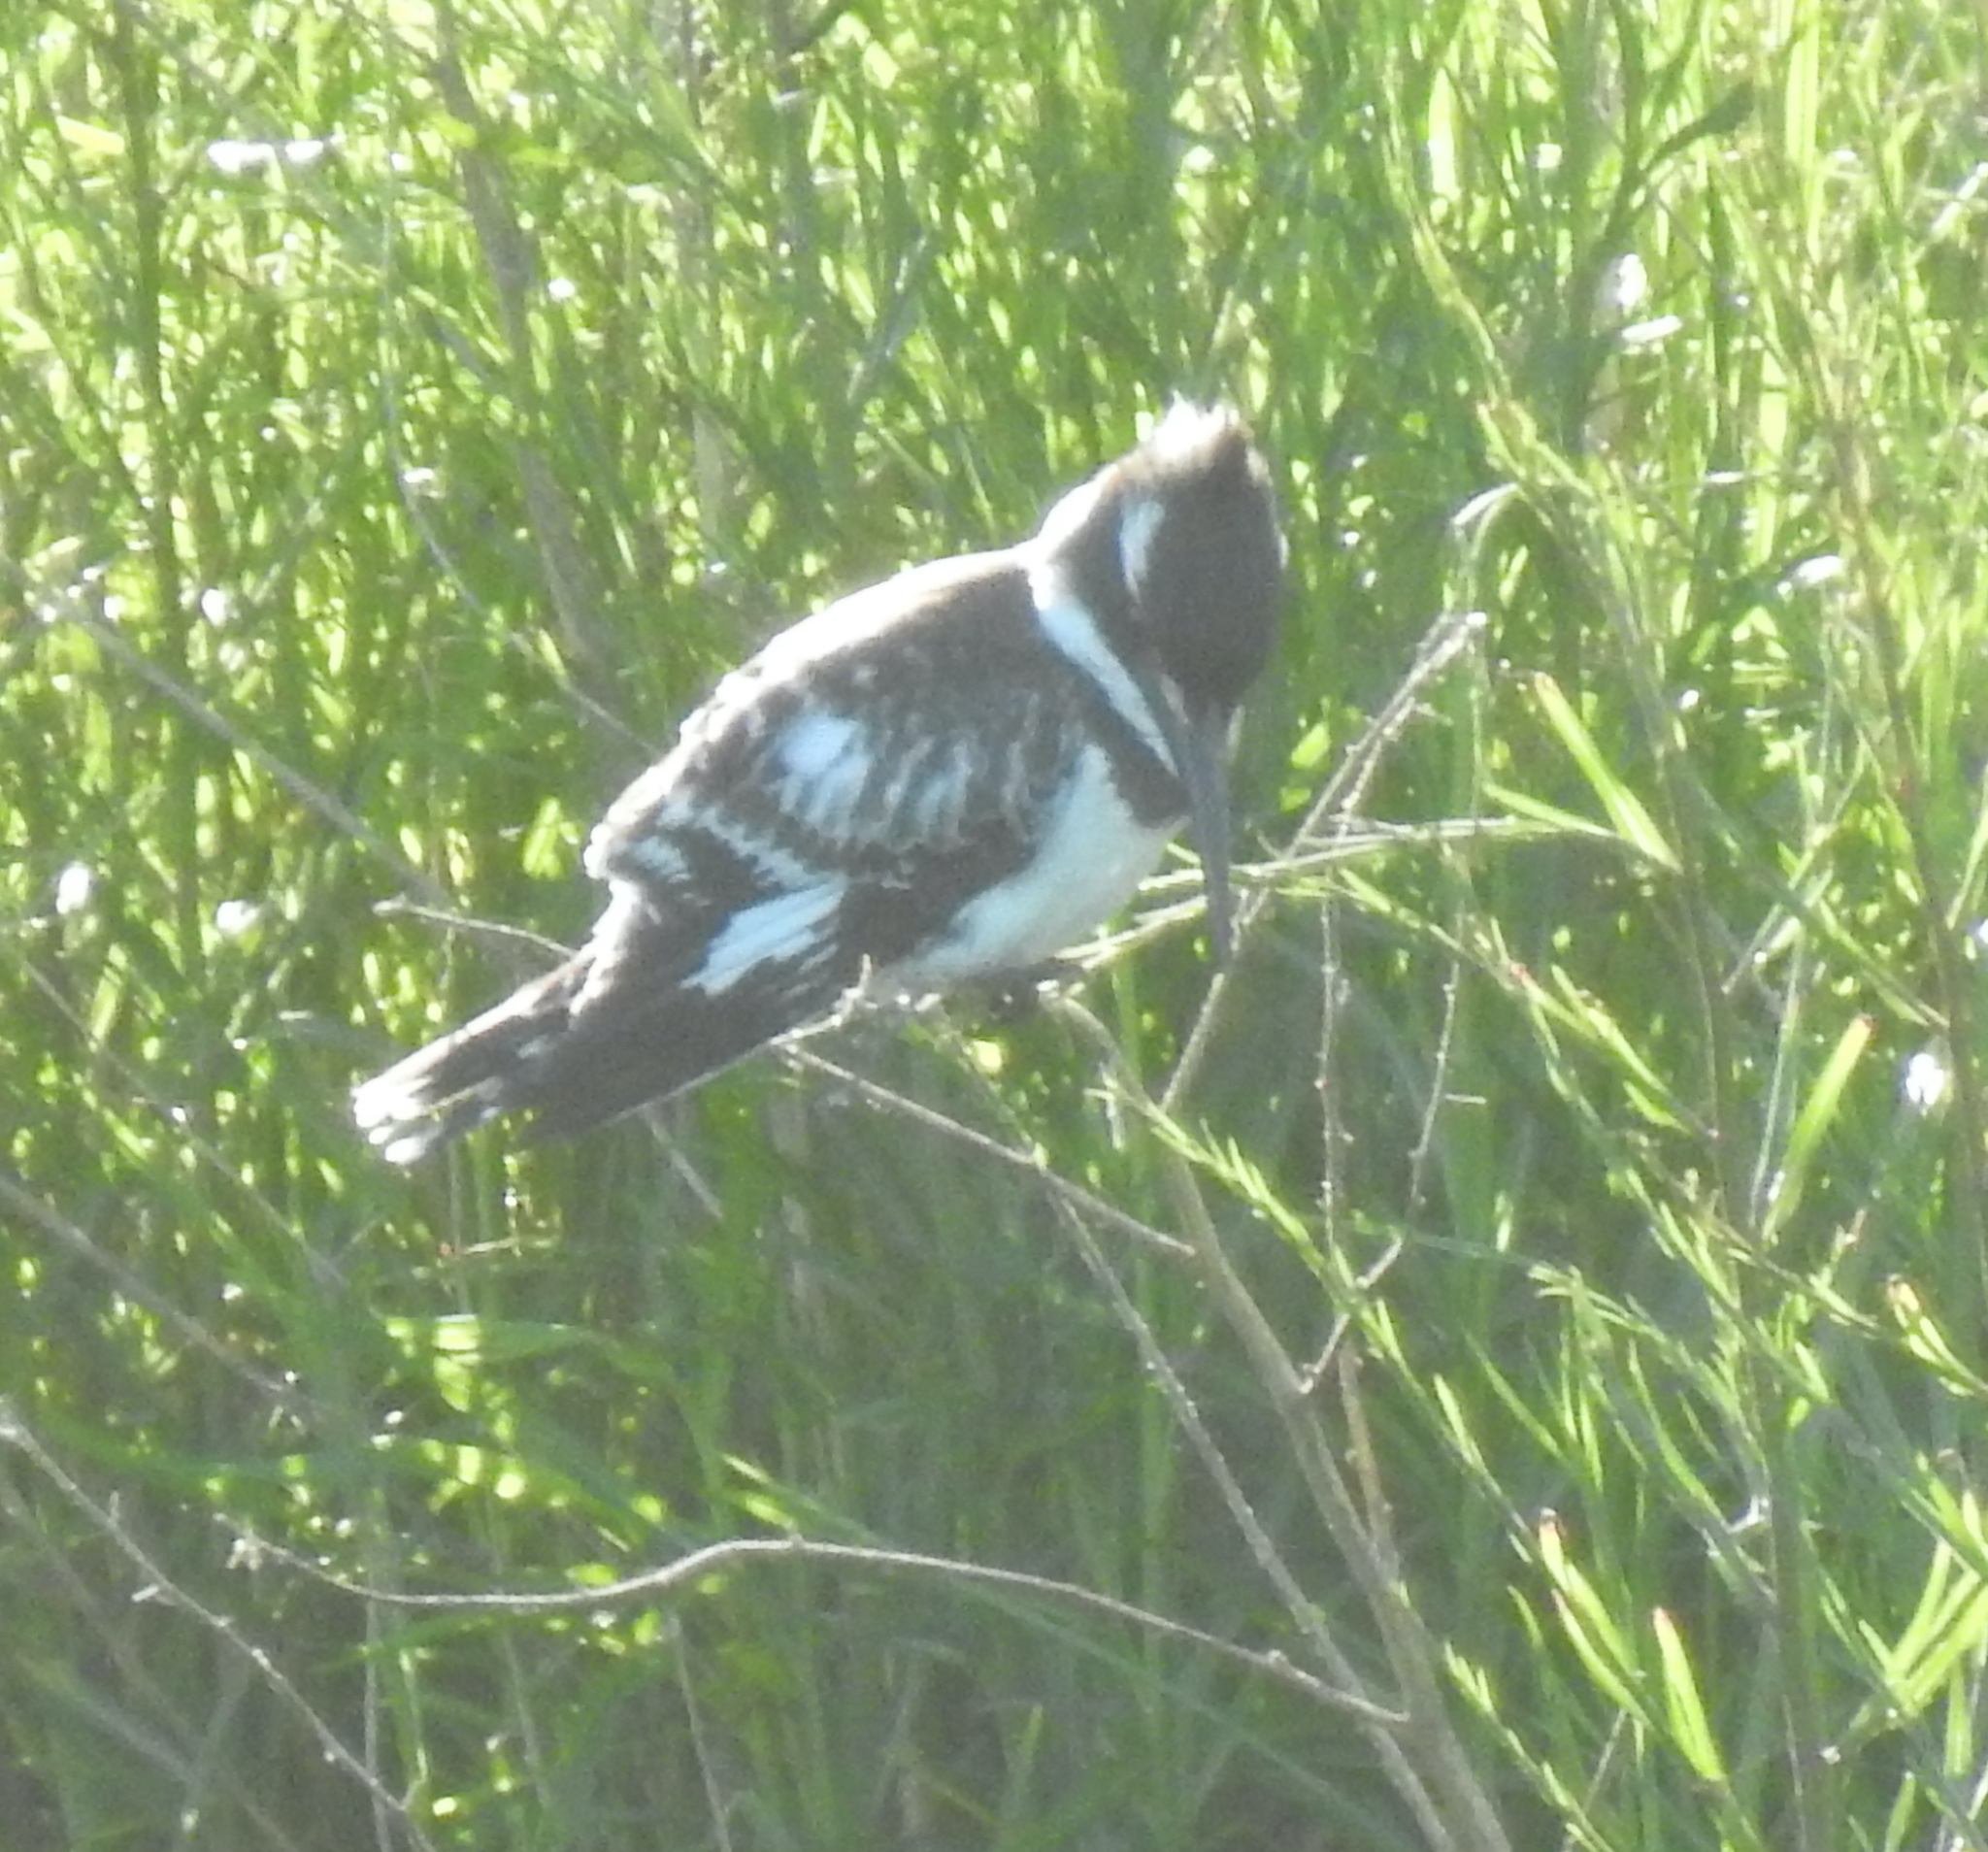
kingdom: Animalia
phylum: Chordata
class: Aves
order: Coraciiformes
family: Alcedinidae
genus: Ceryle
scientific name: Ceryle rudis
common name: Pied kingfisher
